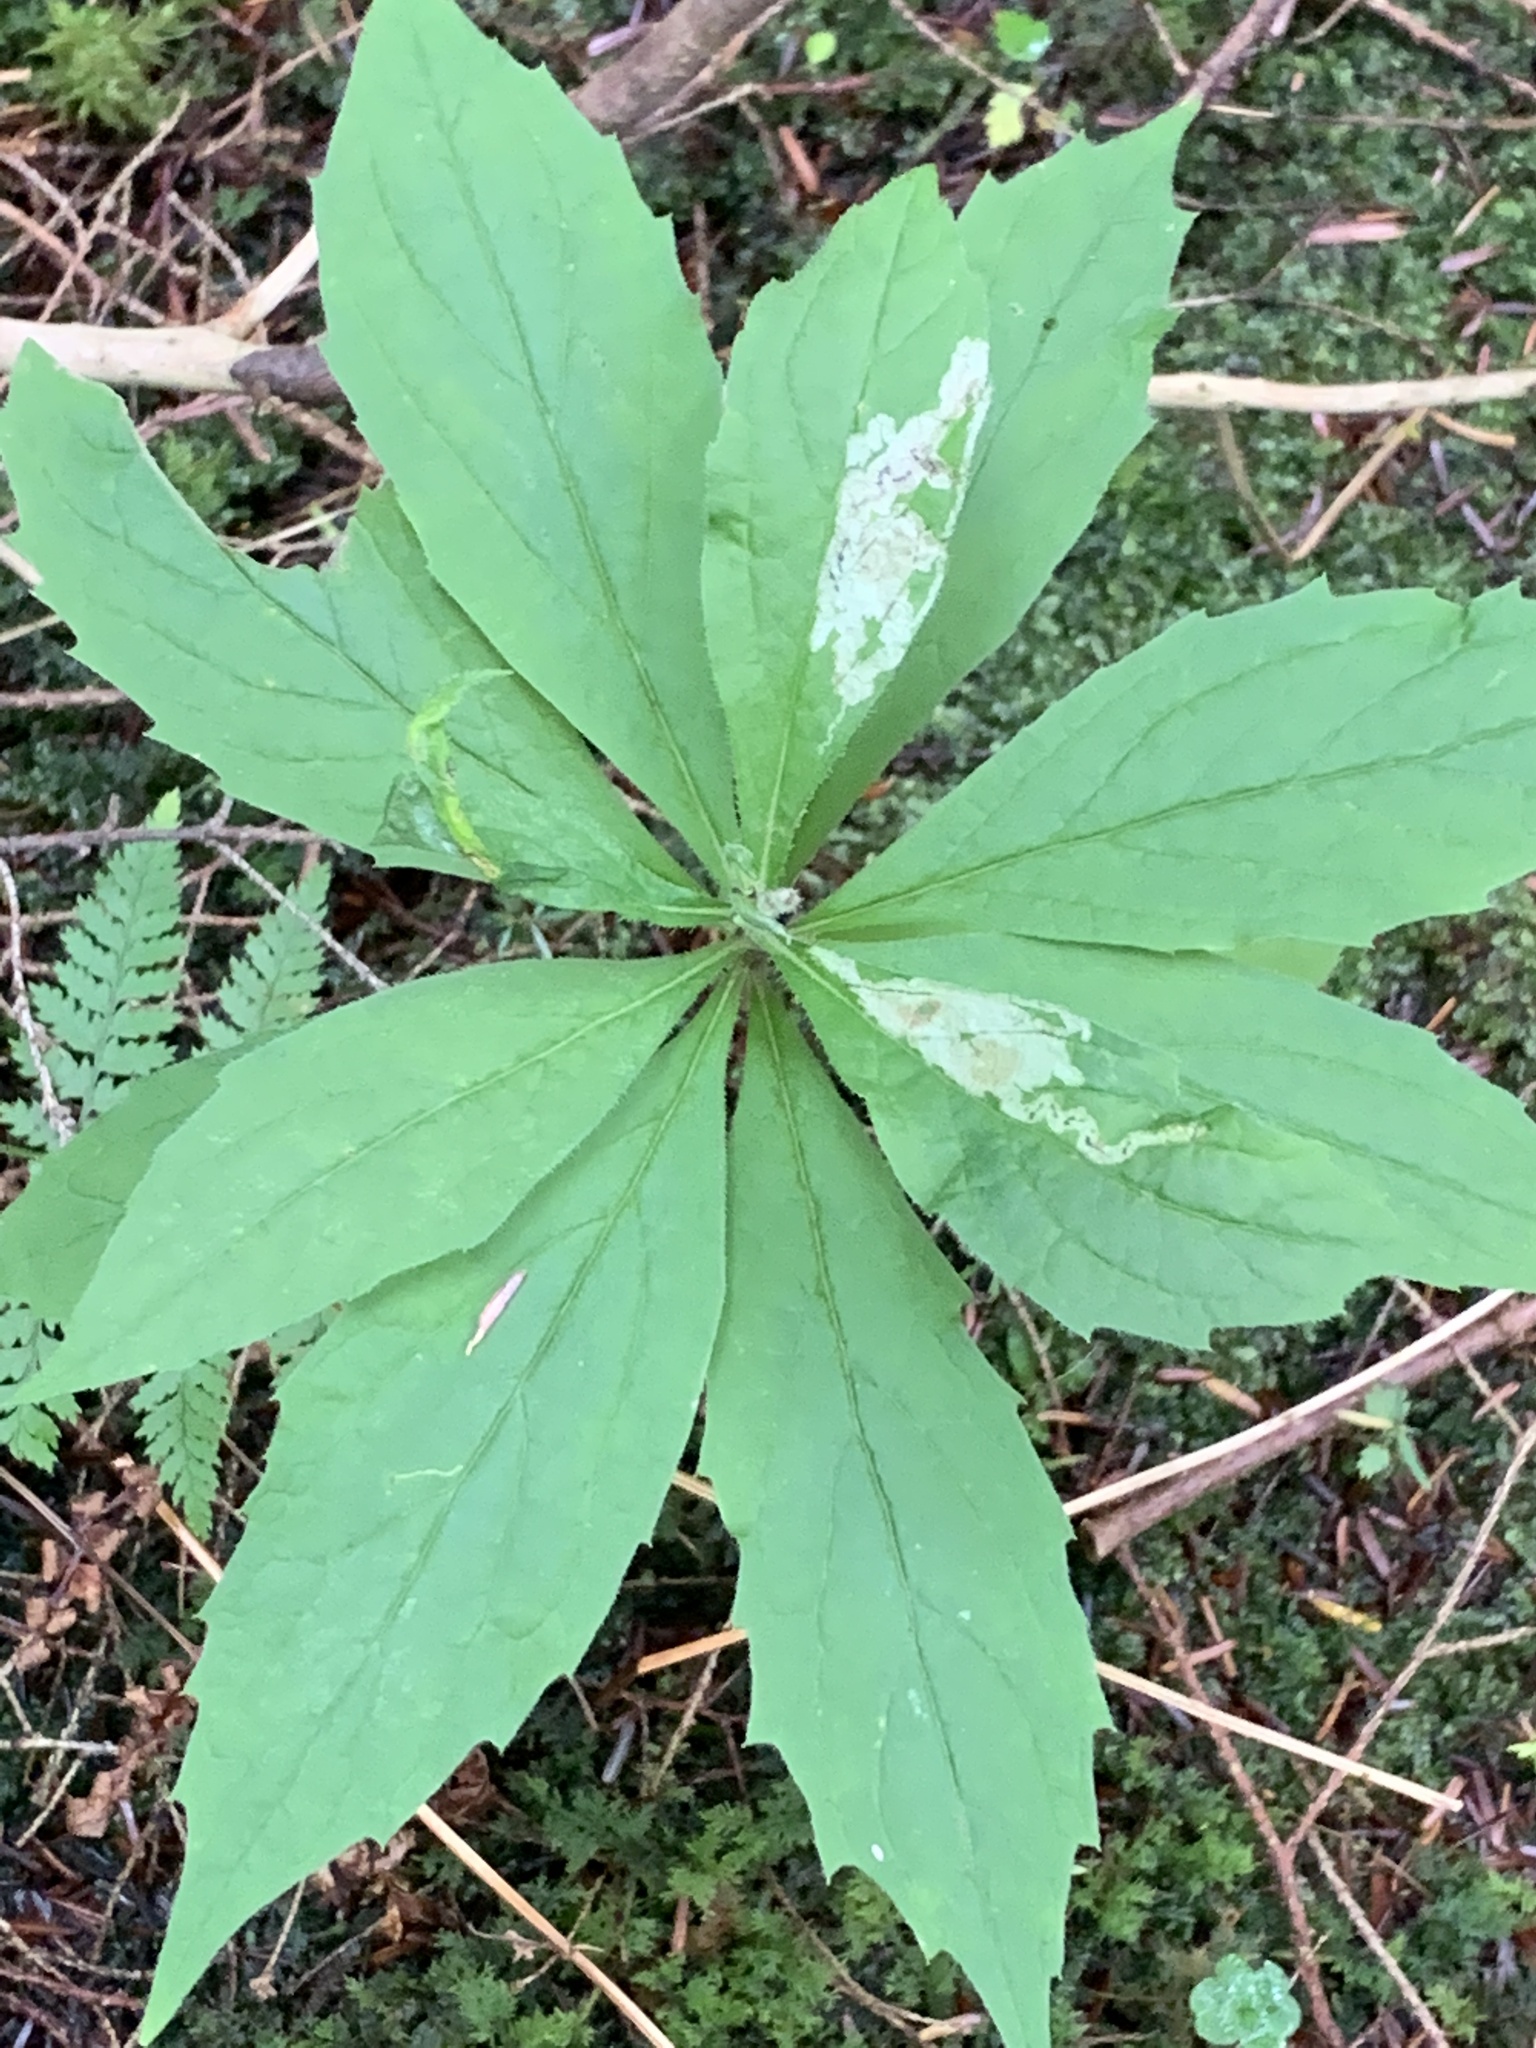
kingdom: Plantae
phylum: Tracheophyta
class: Magnoliopsida
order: Asterales
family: Asteraceae
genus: Oclemena
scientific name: Oclemena acuminata
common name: Mountain aster
